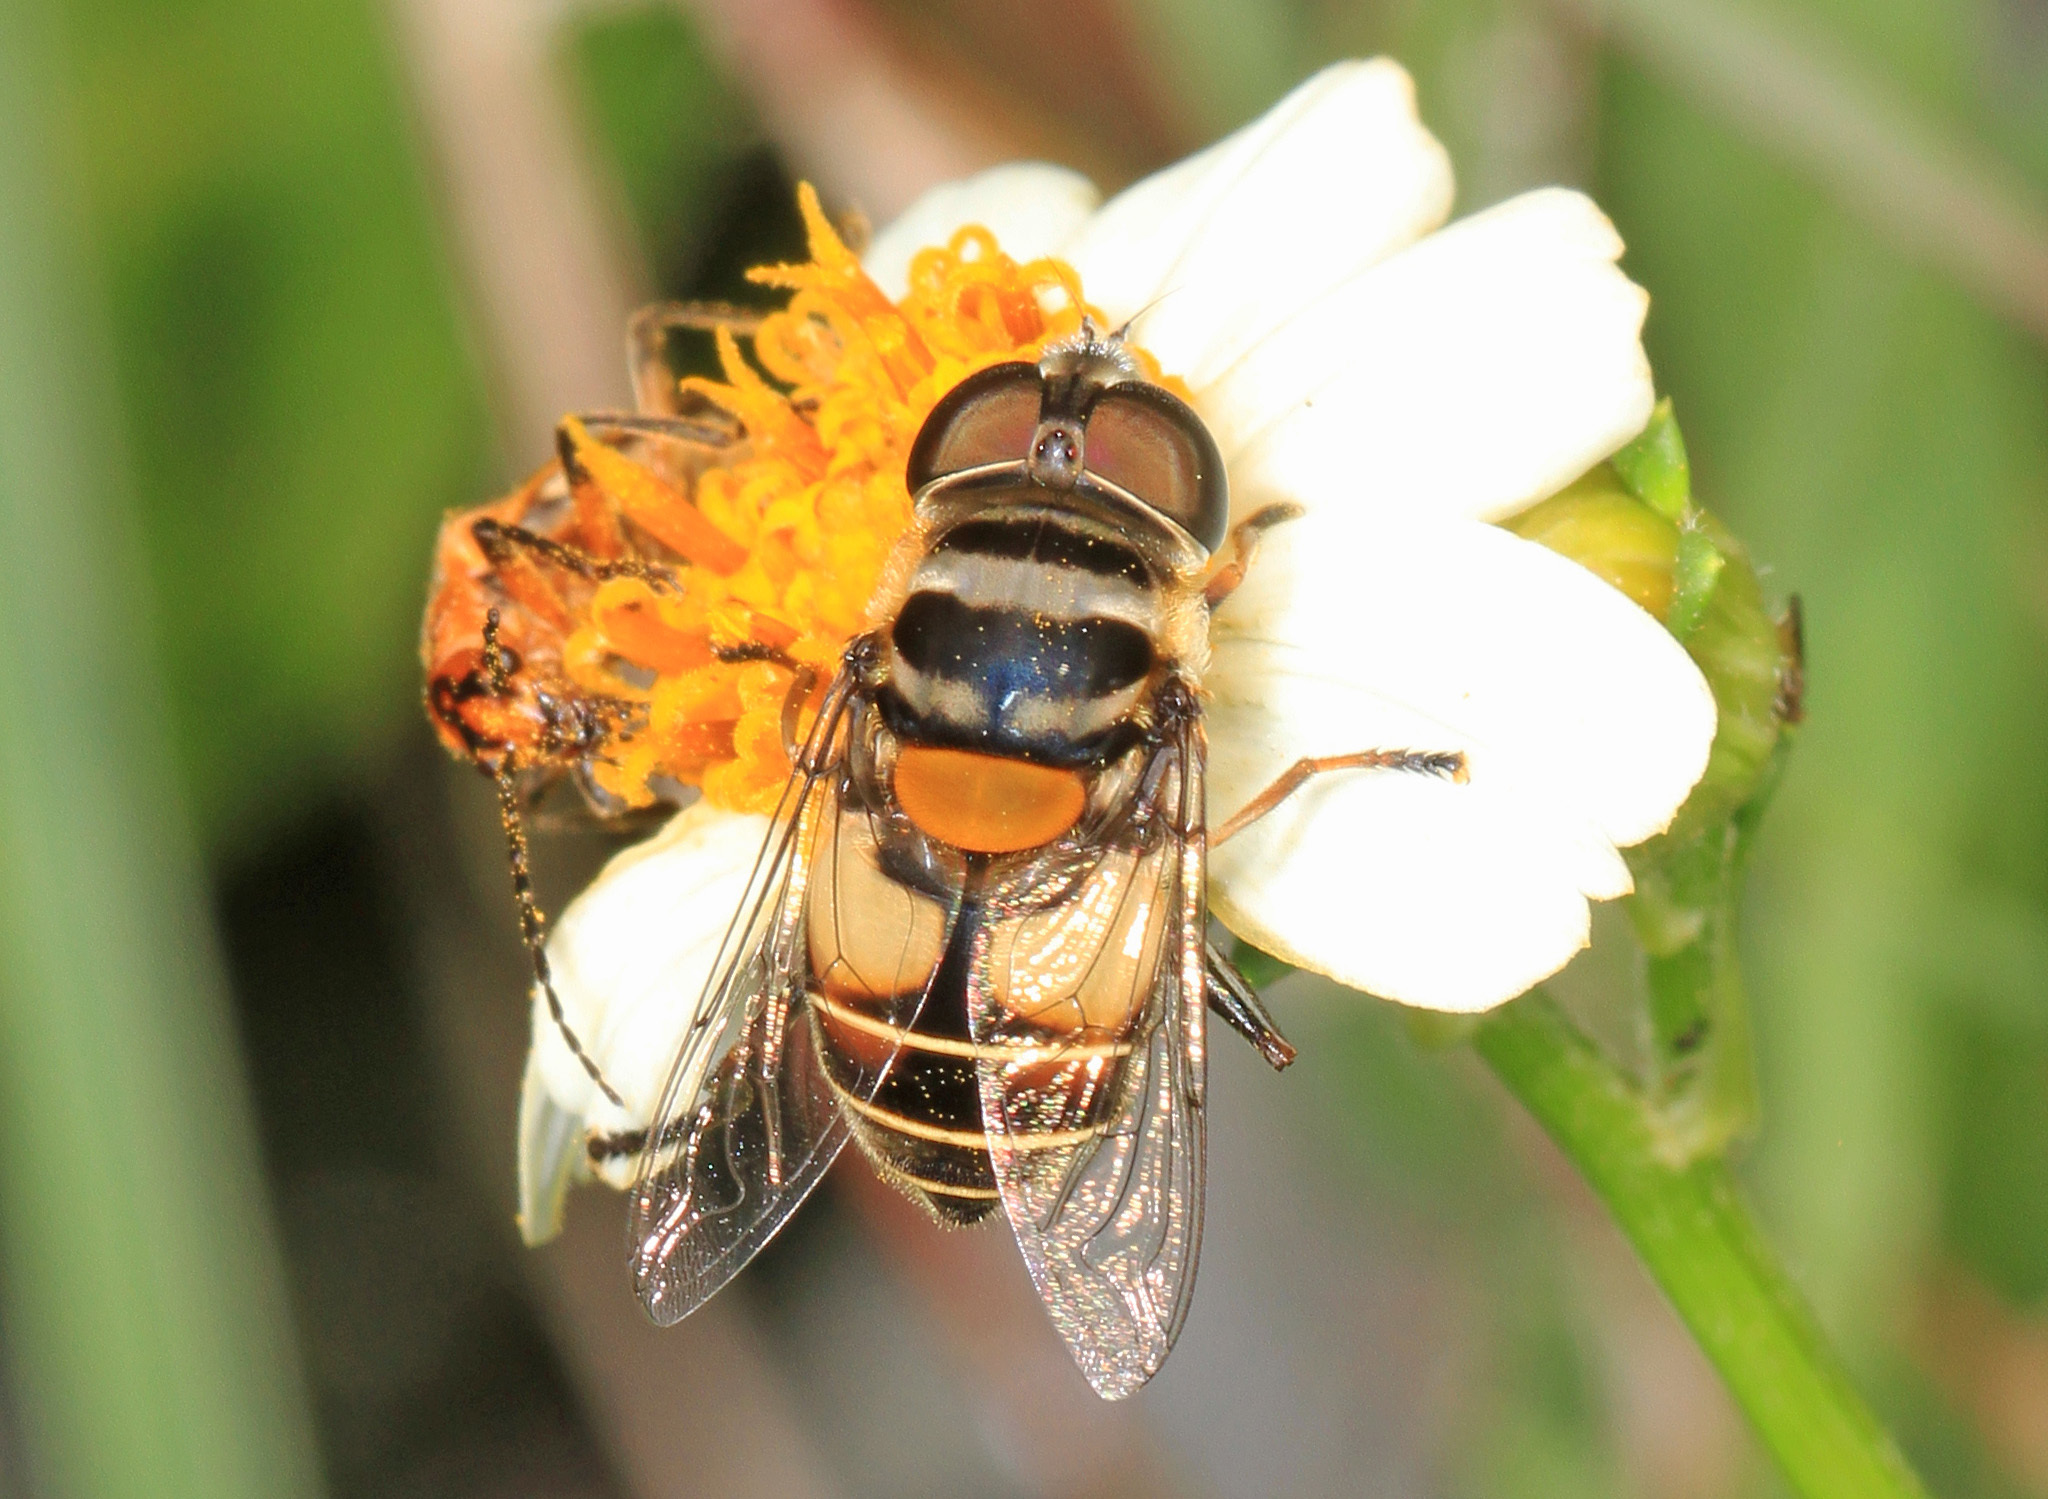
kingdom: Animalia
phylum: Arthropoda
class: Insecta
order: Diptera
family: Syrphidae
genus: Palpada
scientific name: Palpada albifrons
